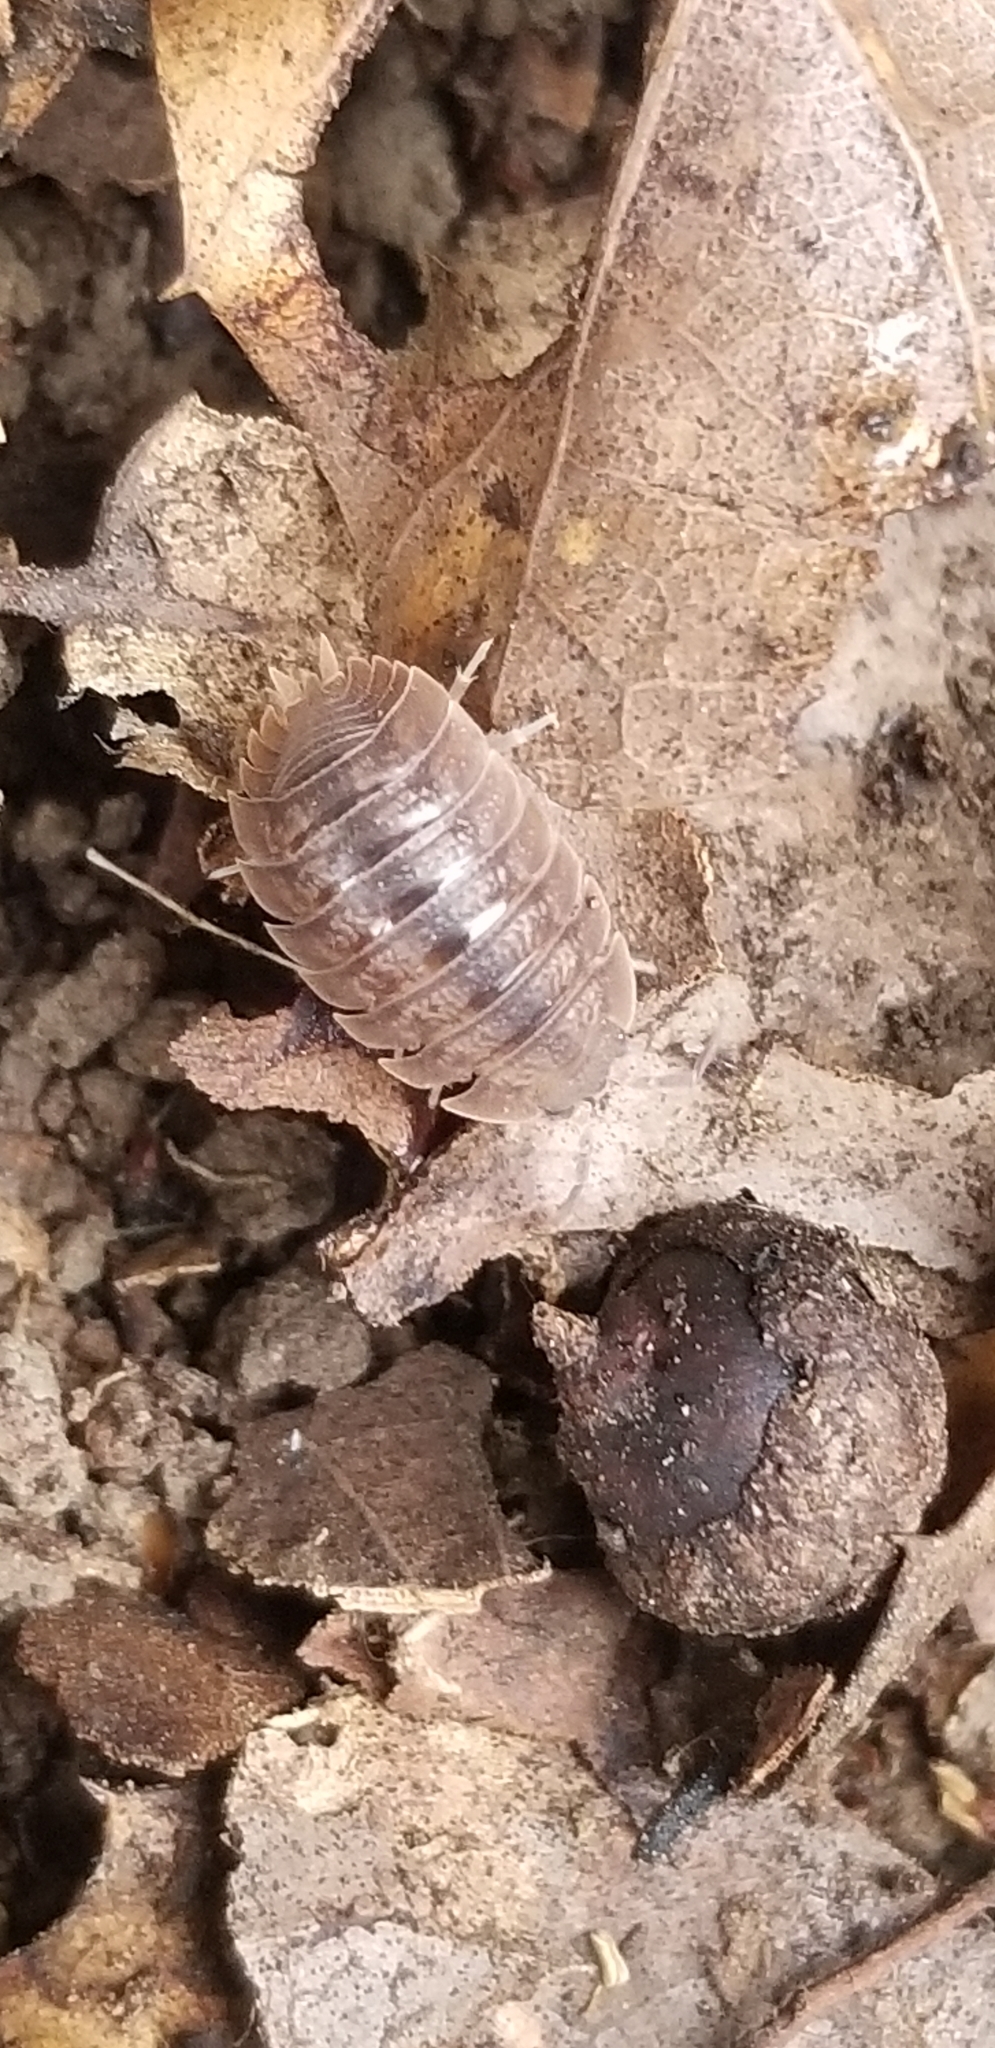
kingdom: Animalia
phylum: Arthropoda
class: Malacostraca
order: Isopoda
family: Porcellionidae
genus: Porcellio
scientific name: Porcellio dilatatus
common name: Isopod
